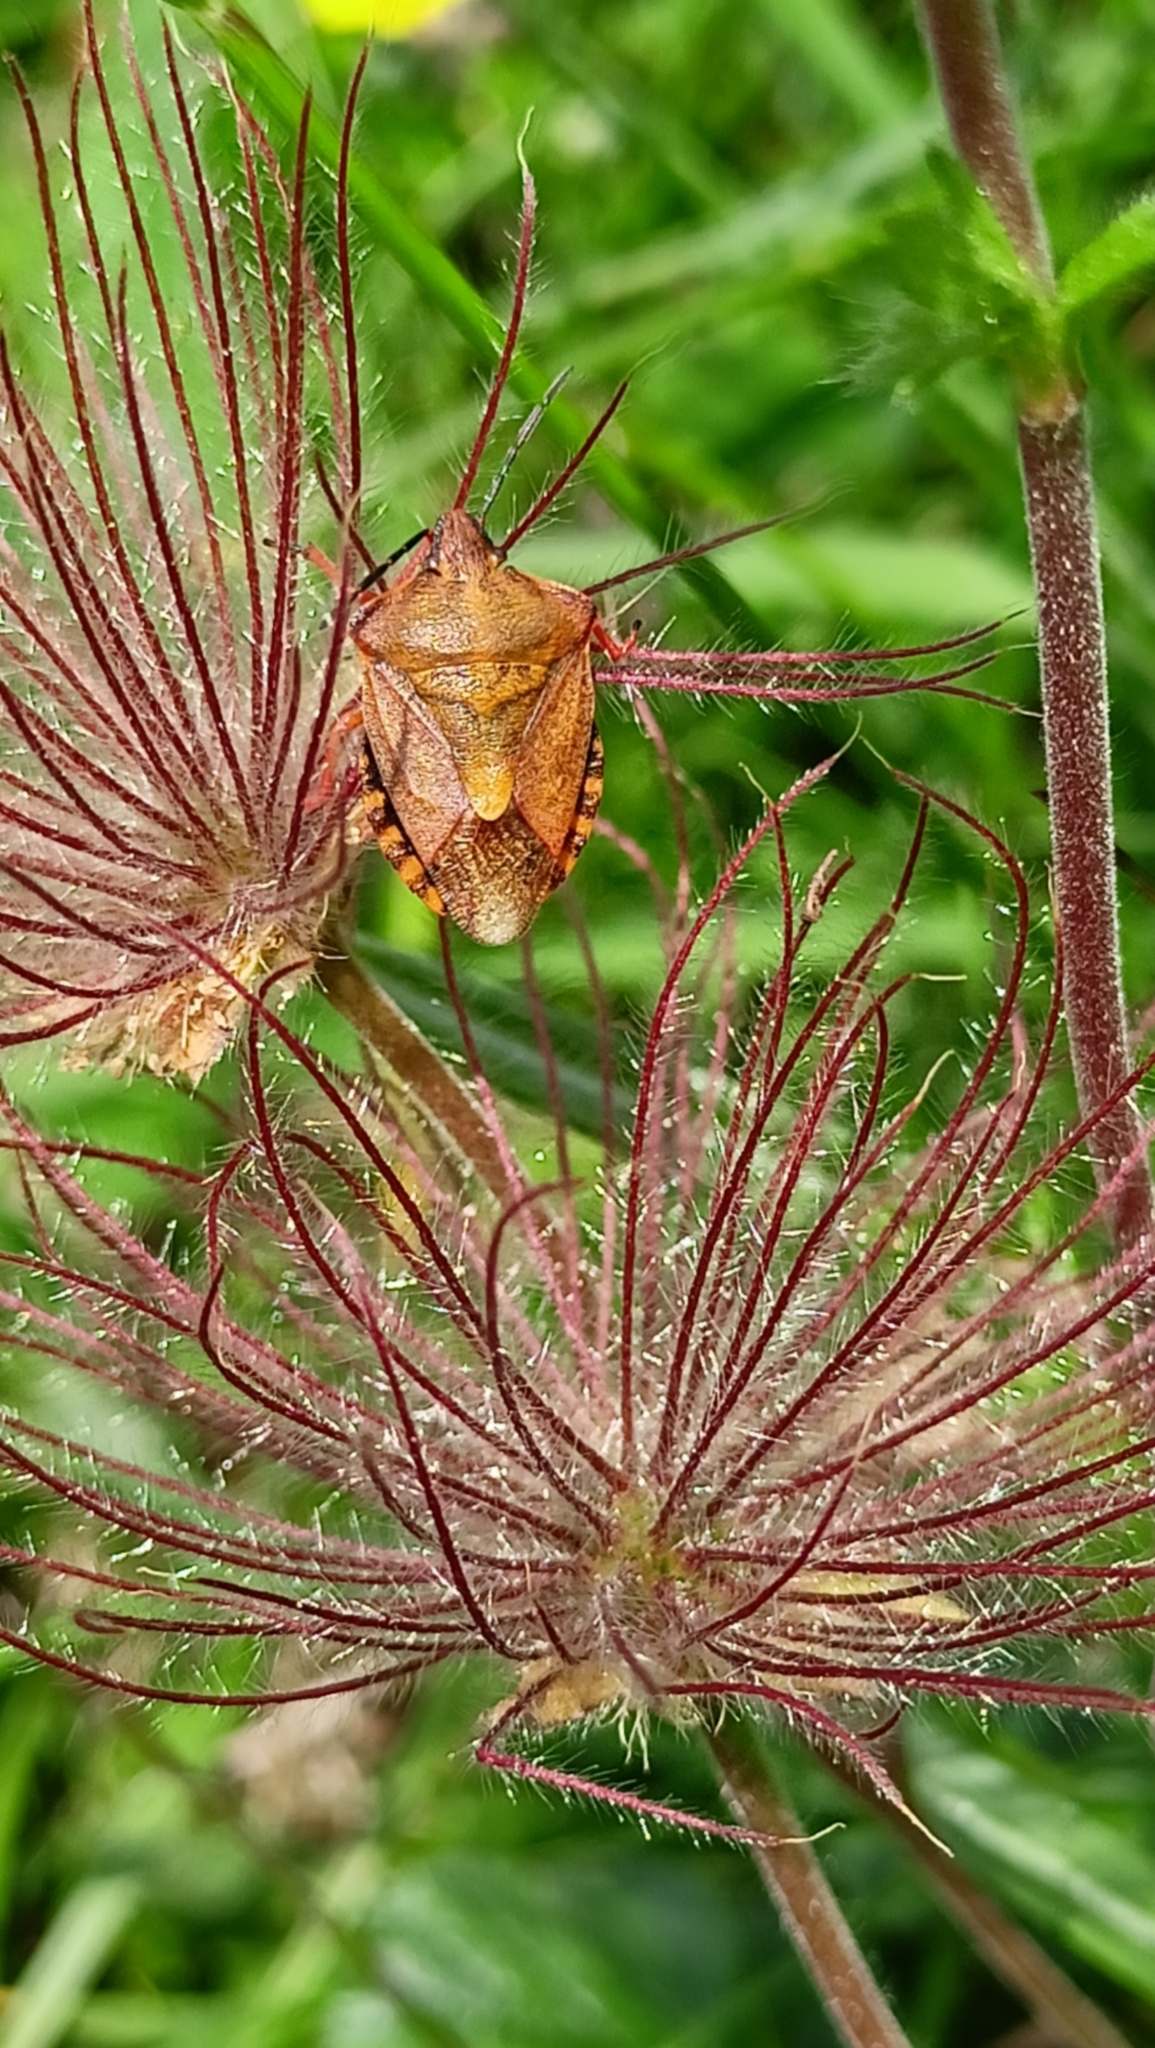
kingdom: Animalia
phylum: Arthropoda
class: Insecta
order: Hemiptera
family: Pentatomidae
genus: Carpocoris
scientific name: Carpocoris purpureipennis
